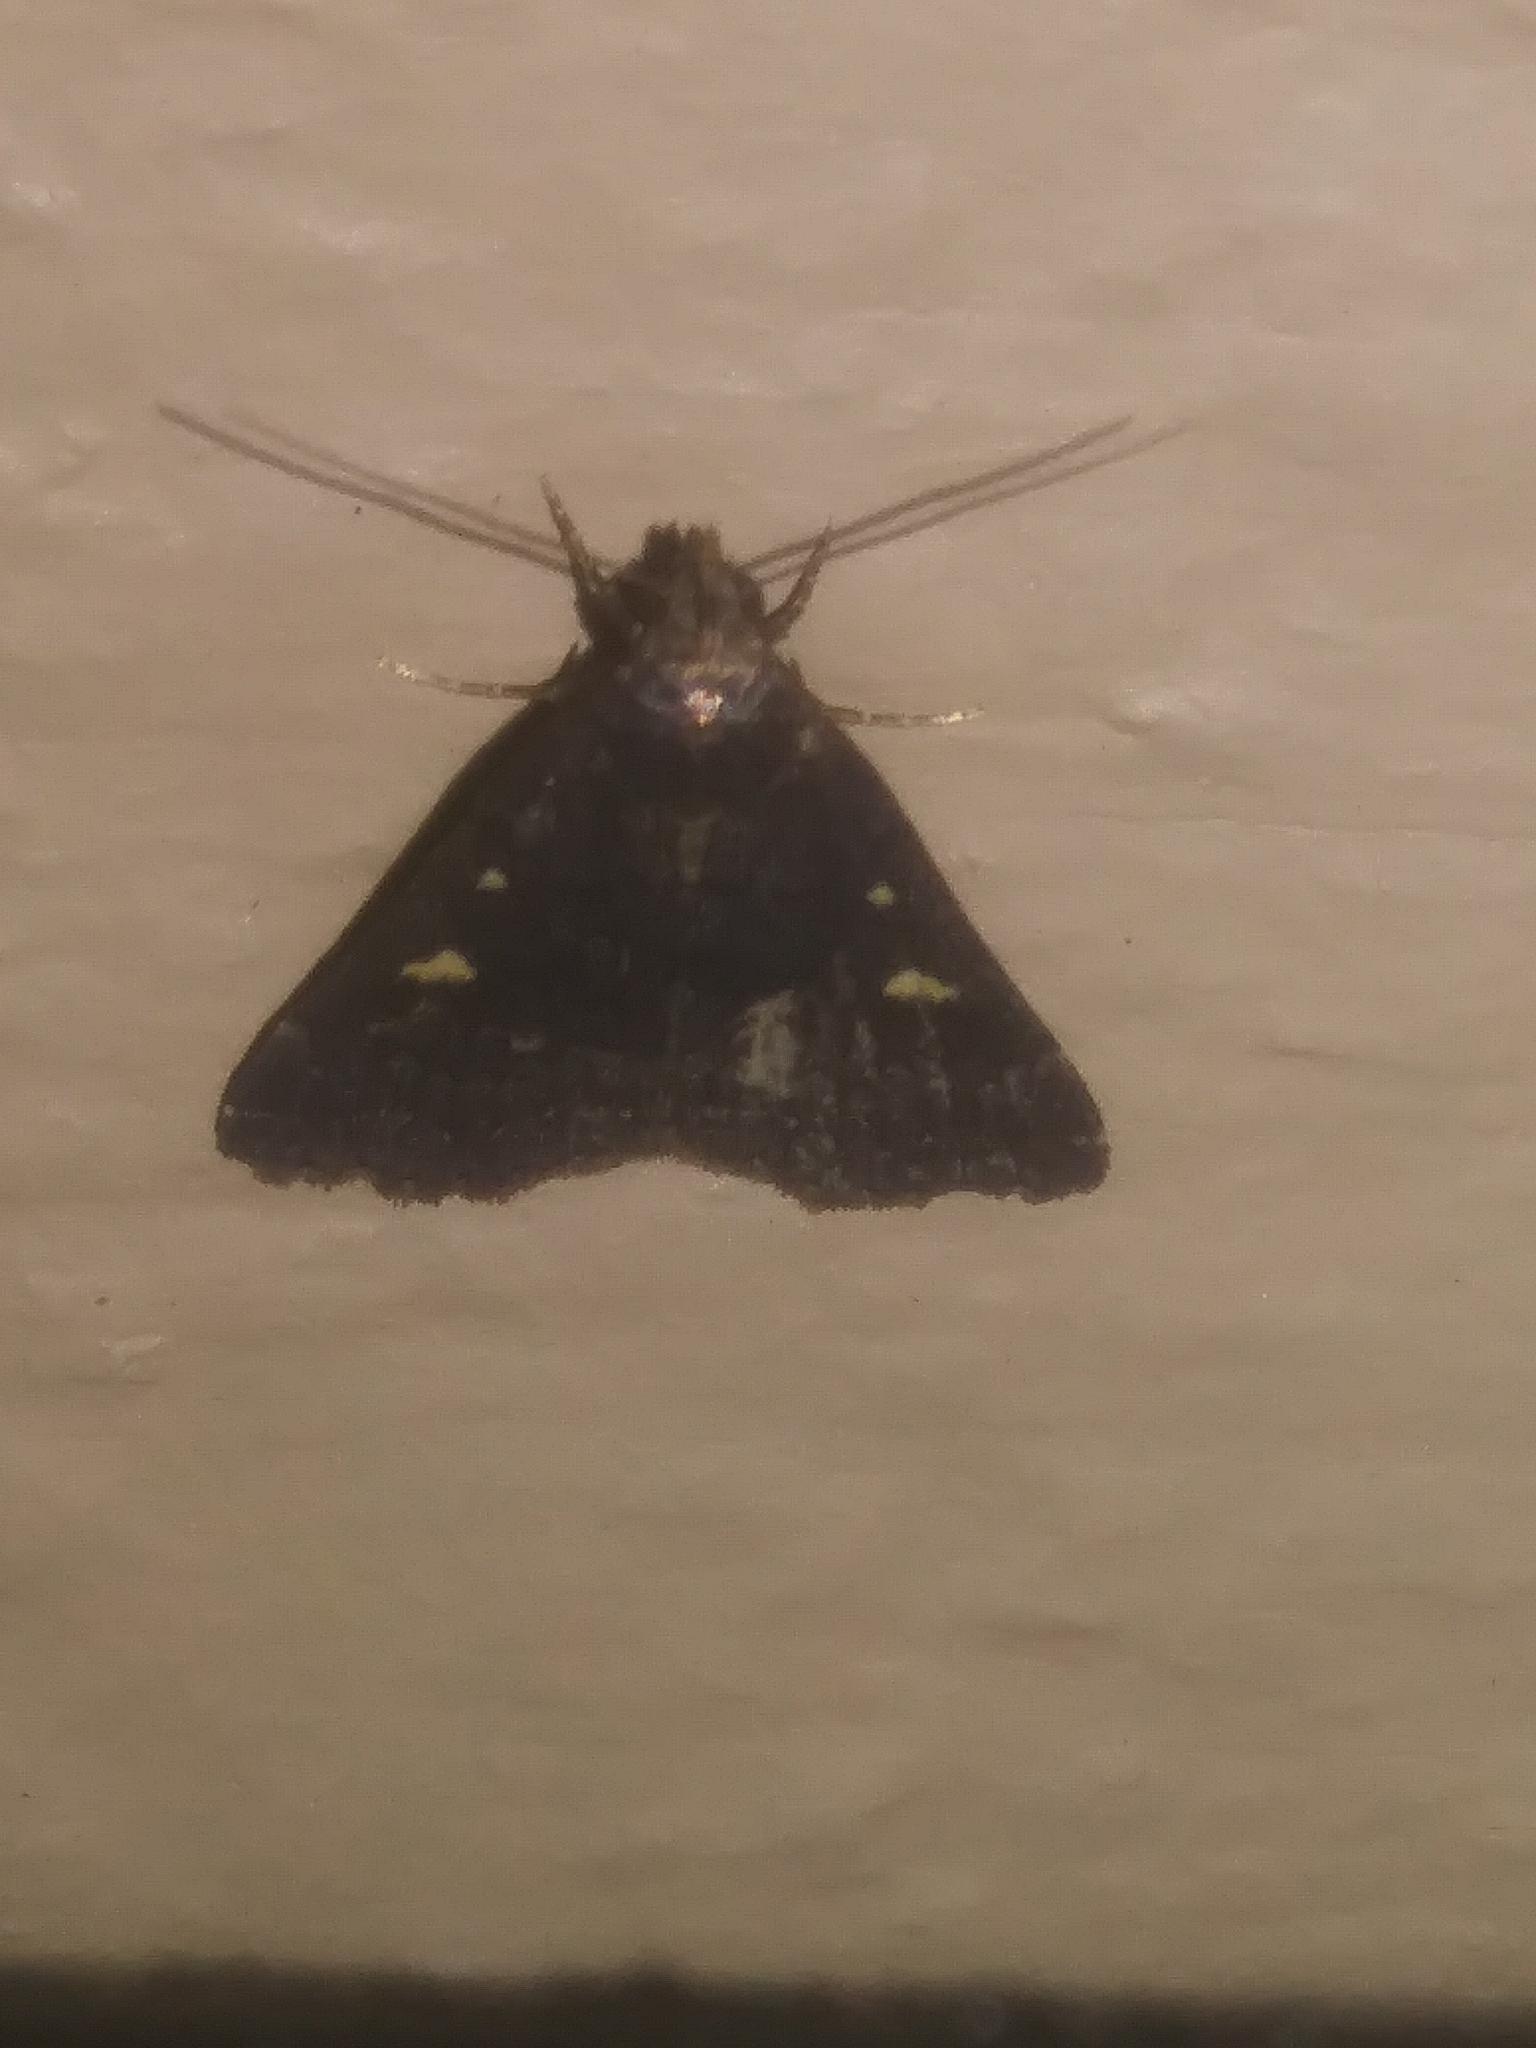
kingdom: Animalia
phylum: Arthropoda
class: Insecta
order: Lepidoptera
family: Erebidae
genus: Tetanolita
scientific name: Tetanolita mynesalis
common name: Smoky tetanolita moth
